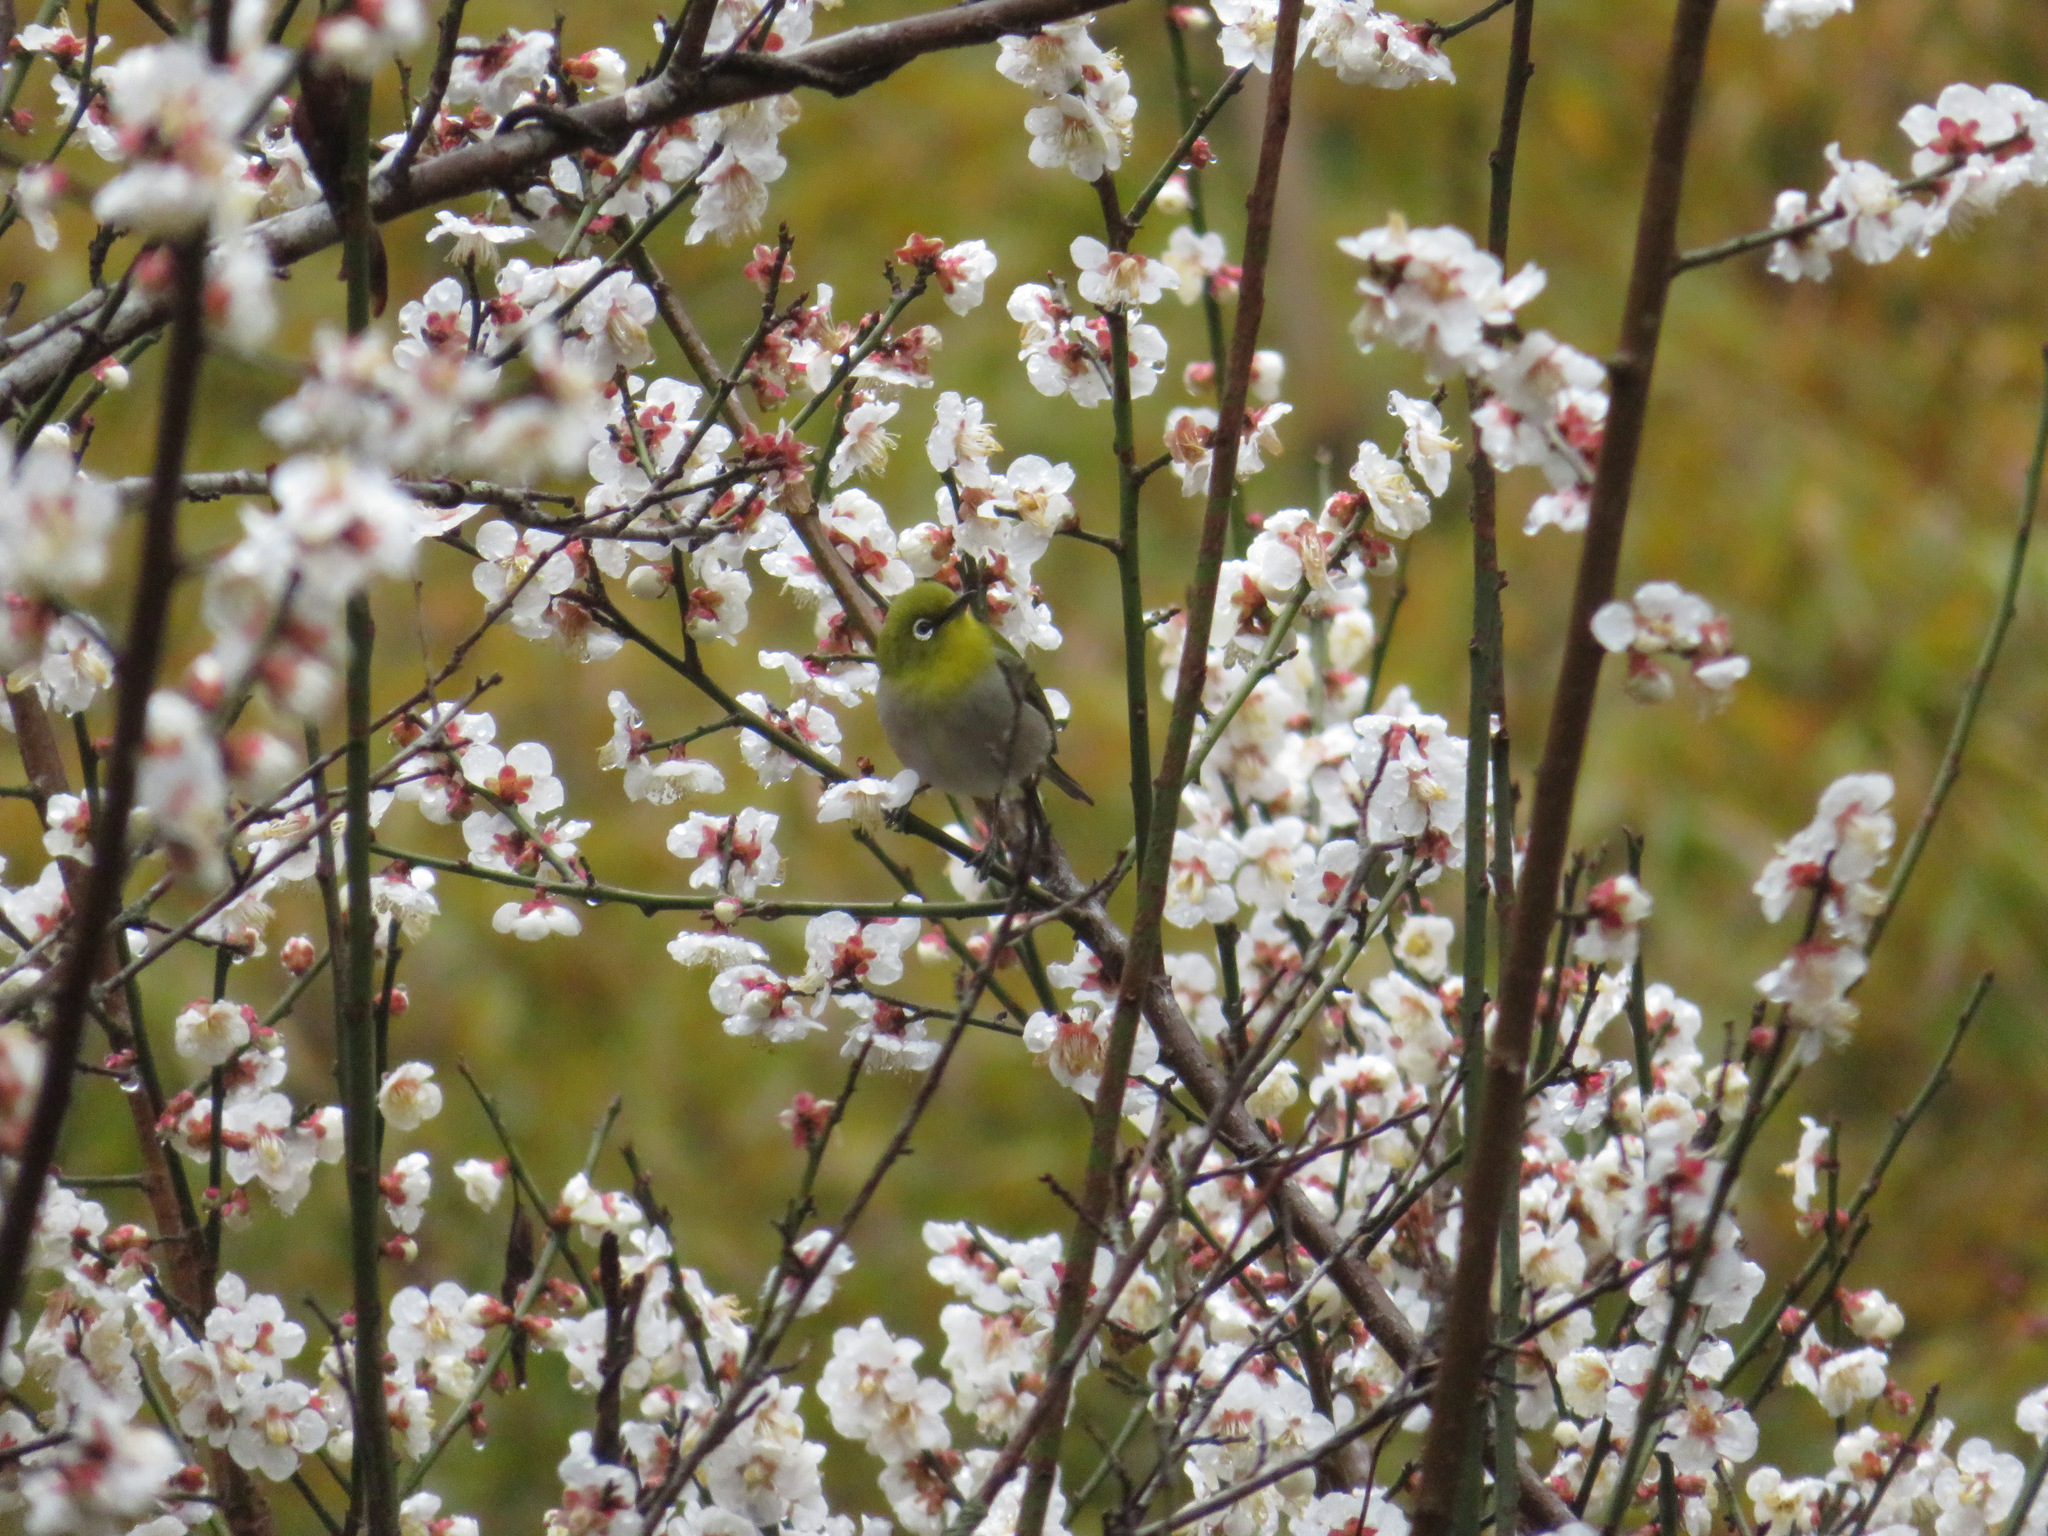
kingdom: Animalia
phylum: Chordata
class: Aves
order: Passeriformes
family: Zosteropidae
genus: Zosterops
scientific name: Zosterops japonicus
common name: Japanese white-eye
